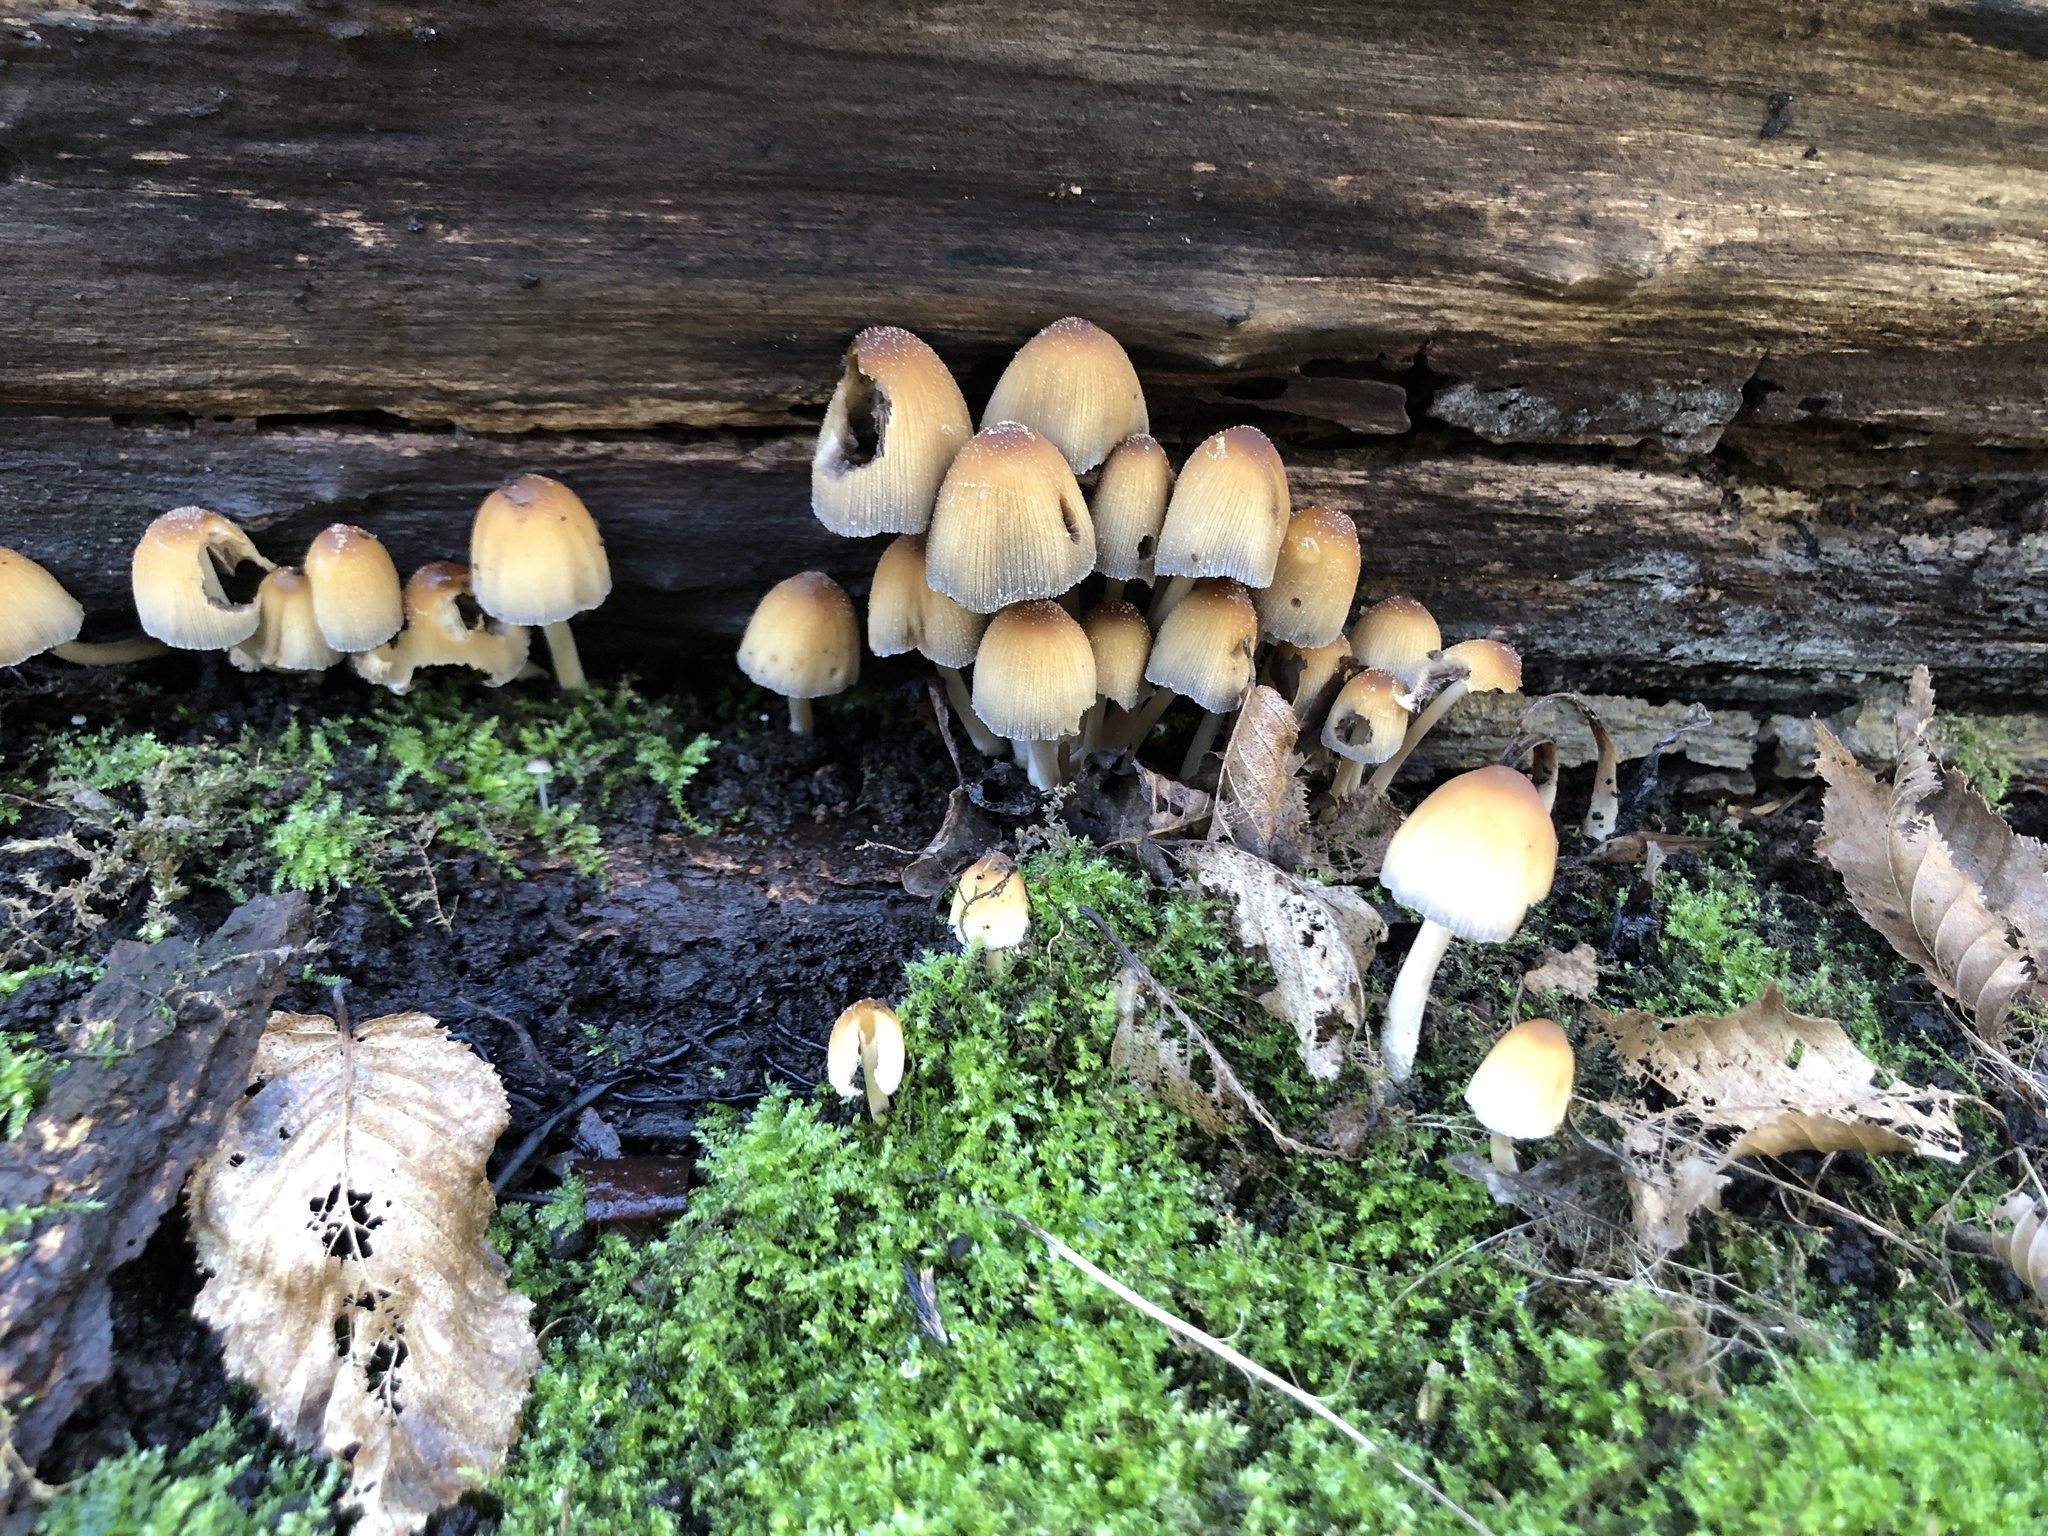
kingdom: Fungi
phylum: Basidiomycota
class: Agaricomycetes
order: Agaricales
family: Psathyrellaceae
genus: Coprinellus
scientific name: Coprinellus micaceus
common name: Glistening ink-cap
